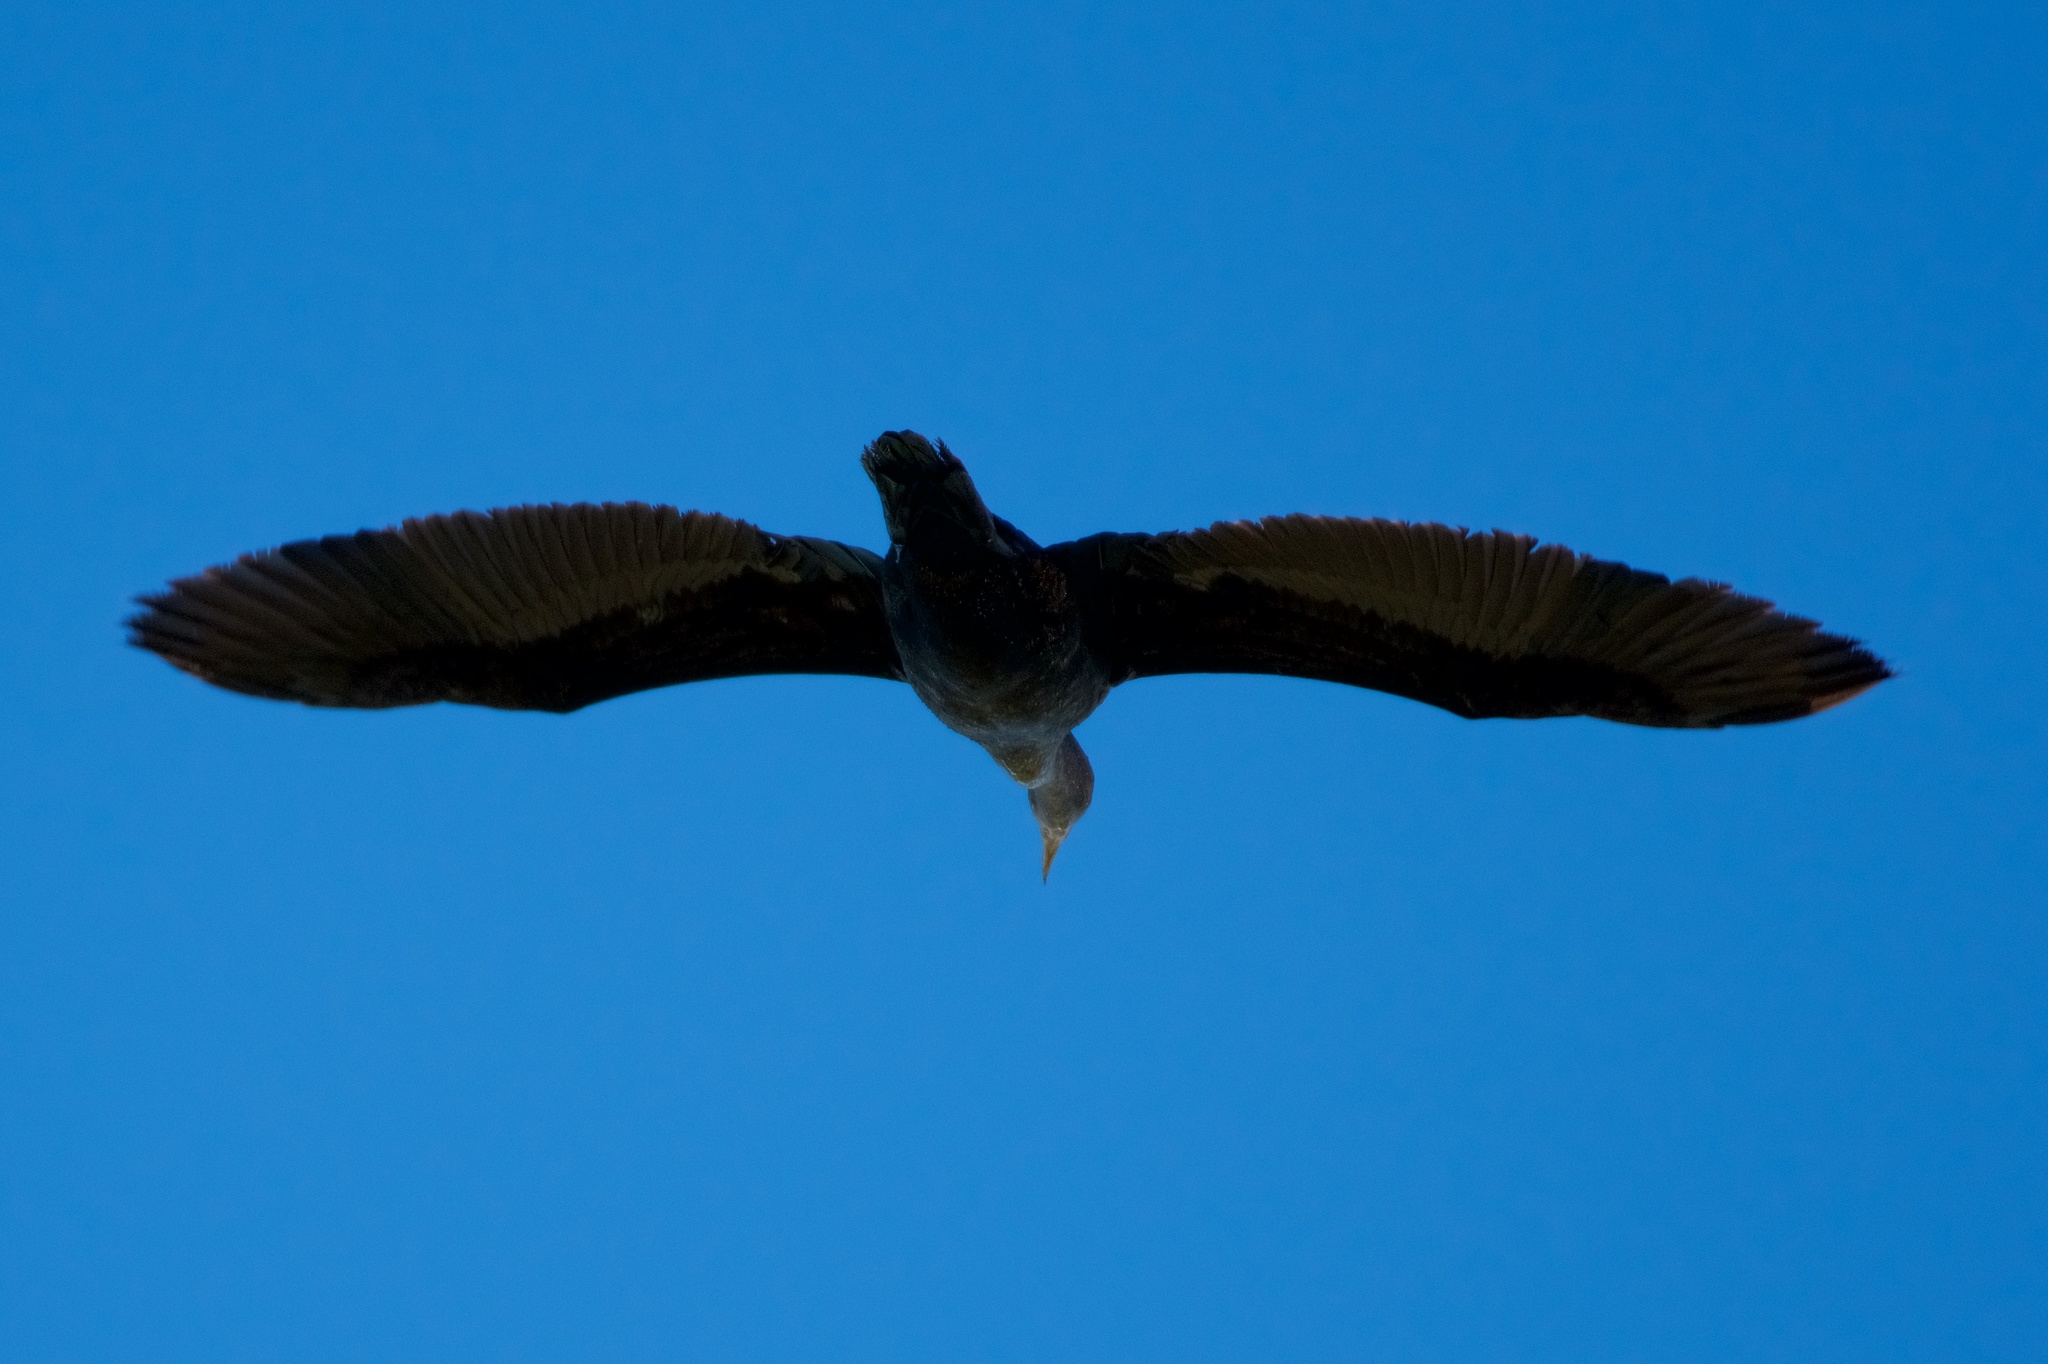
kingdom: Animalia
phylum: Chordata
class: Aves
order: Suliformes
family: Phalacrocoracidae
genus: Phalacrocorax
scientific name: Phalacrocorax auritus
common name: Double-crested cormorant
